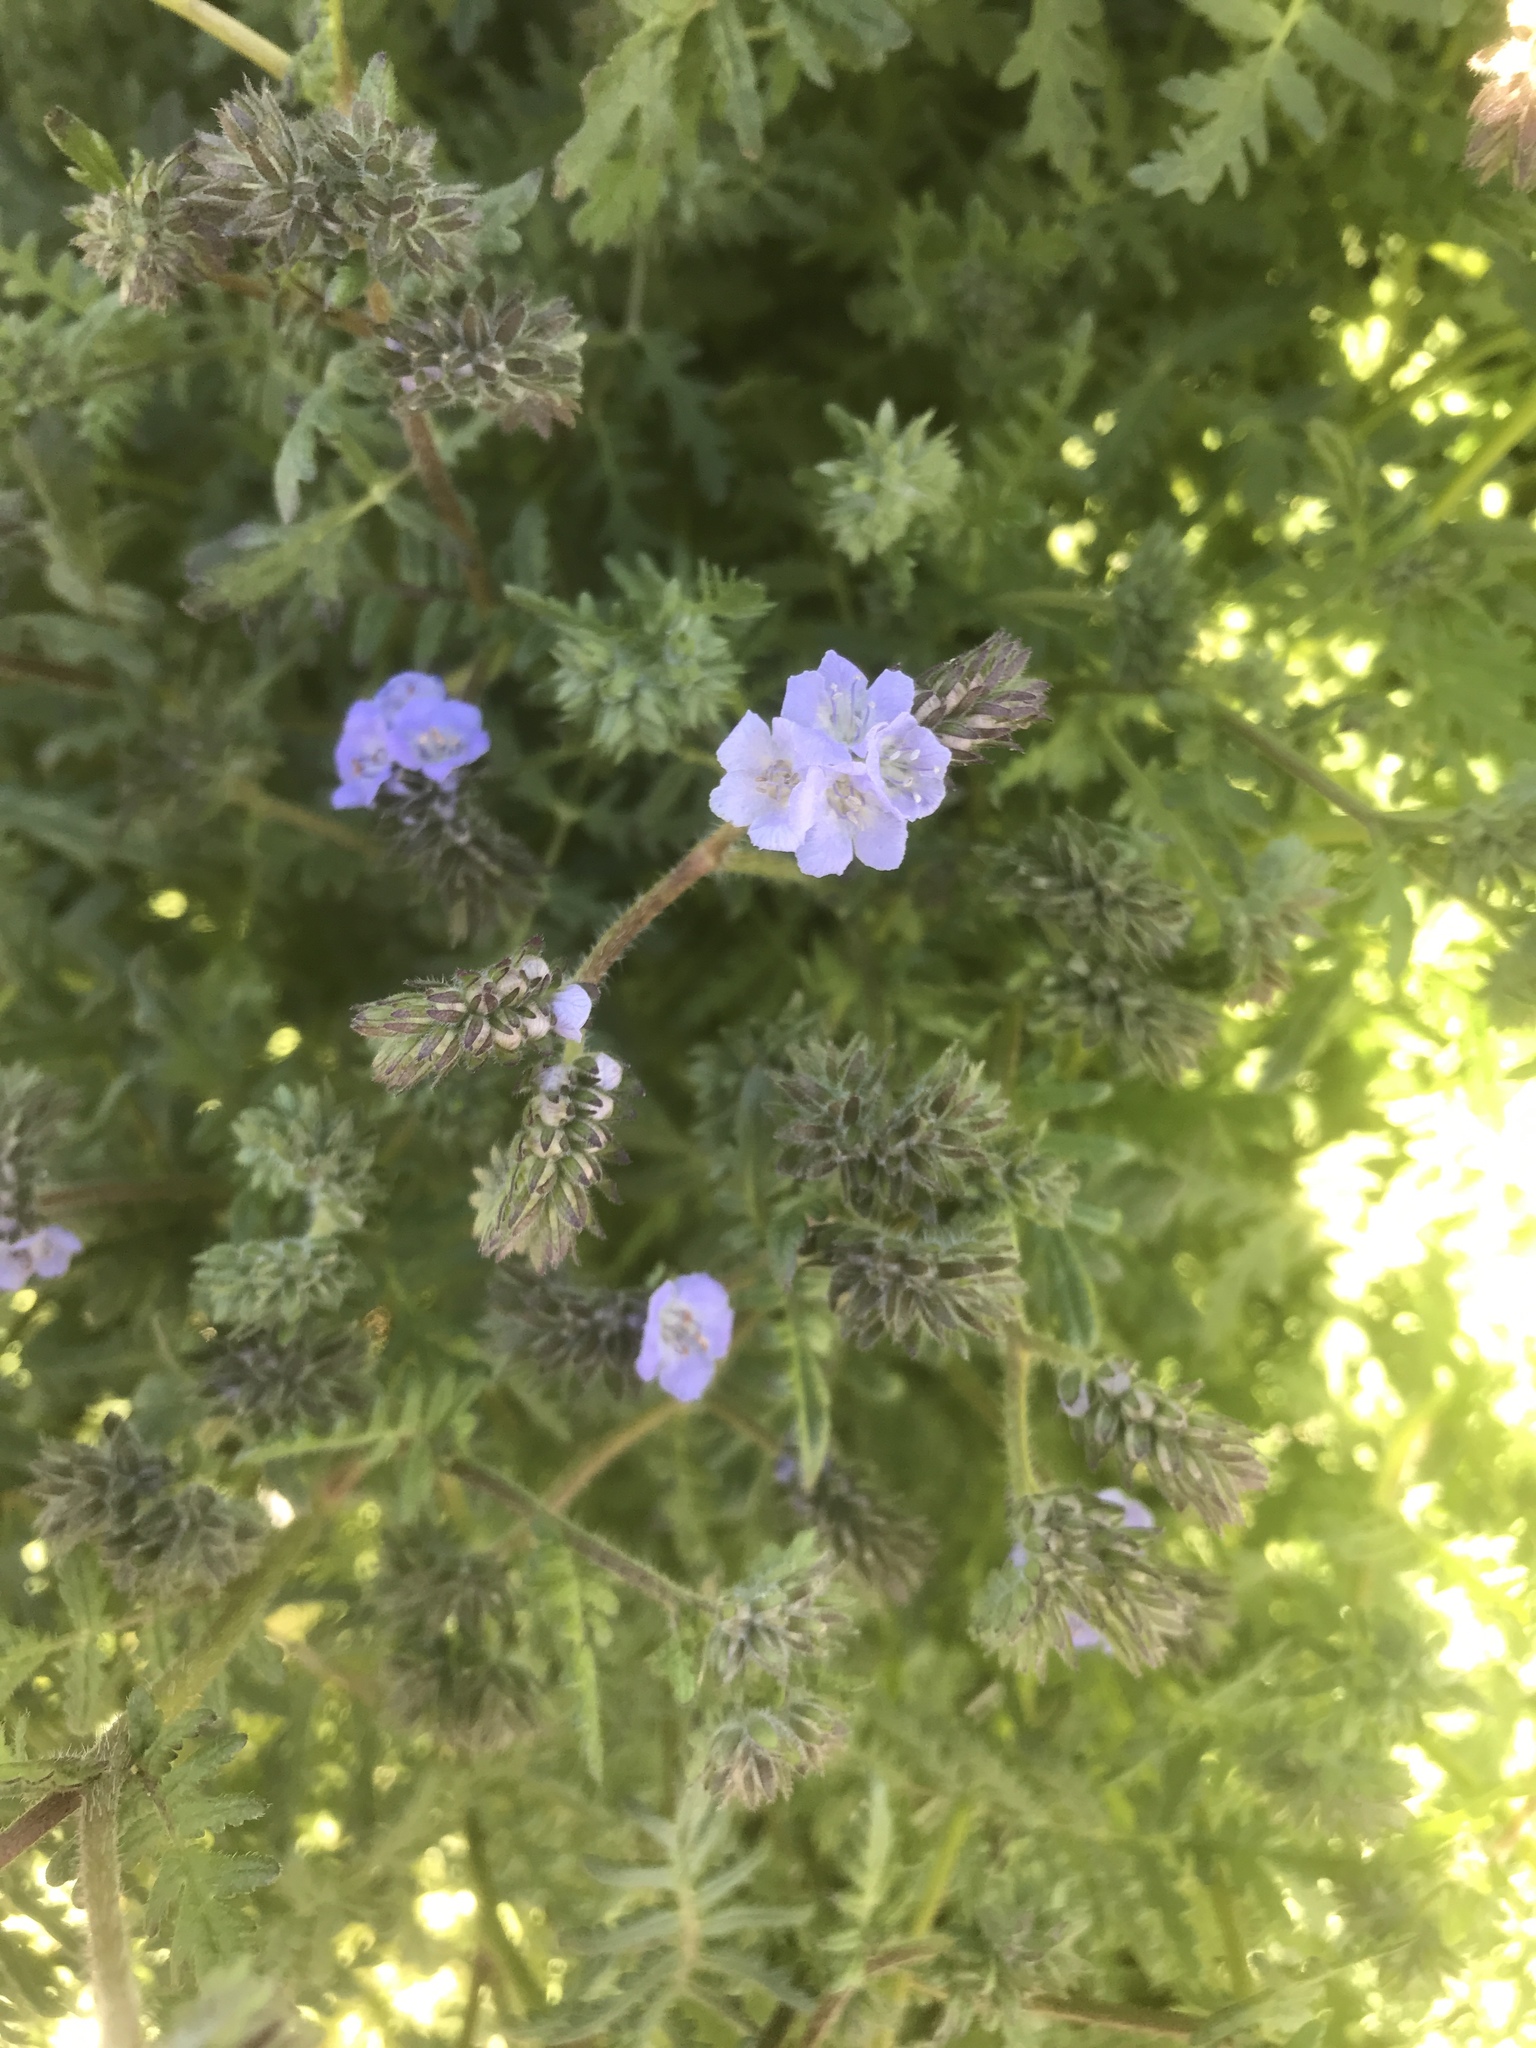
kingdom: Plantae
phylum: Tracheophyta
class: Magnoliopsida
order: Boraginales
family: Hydrophyllaceae
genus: Phacelia
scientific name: Phacelia distans
